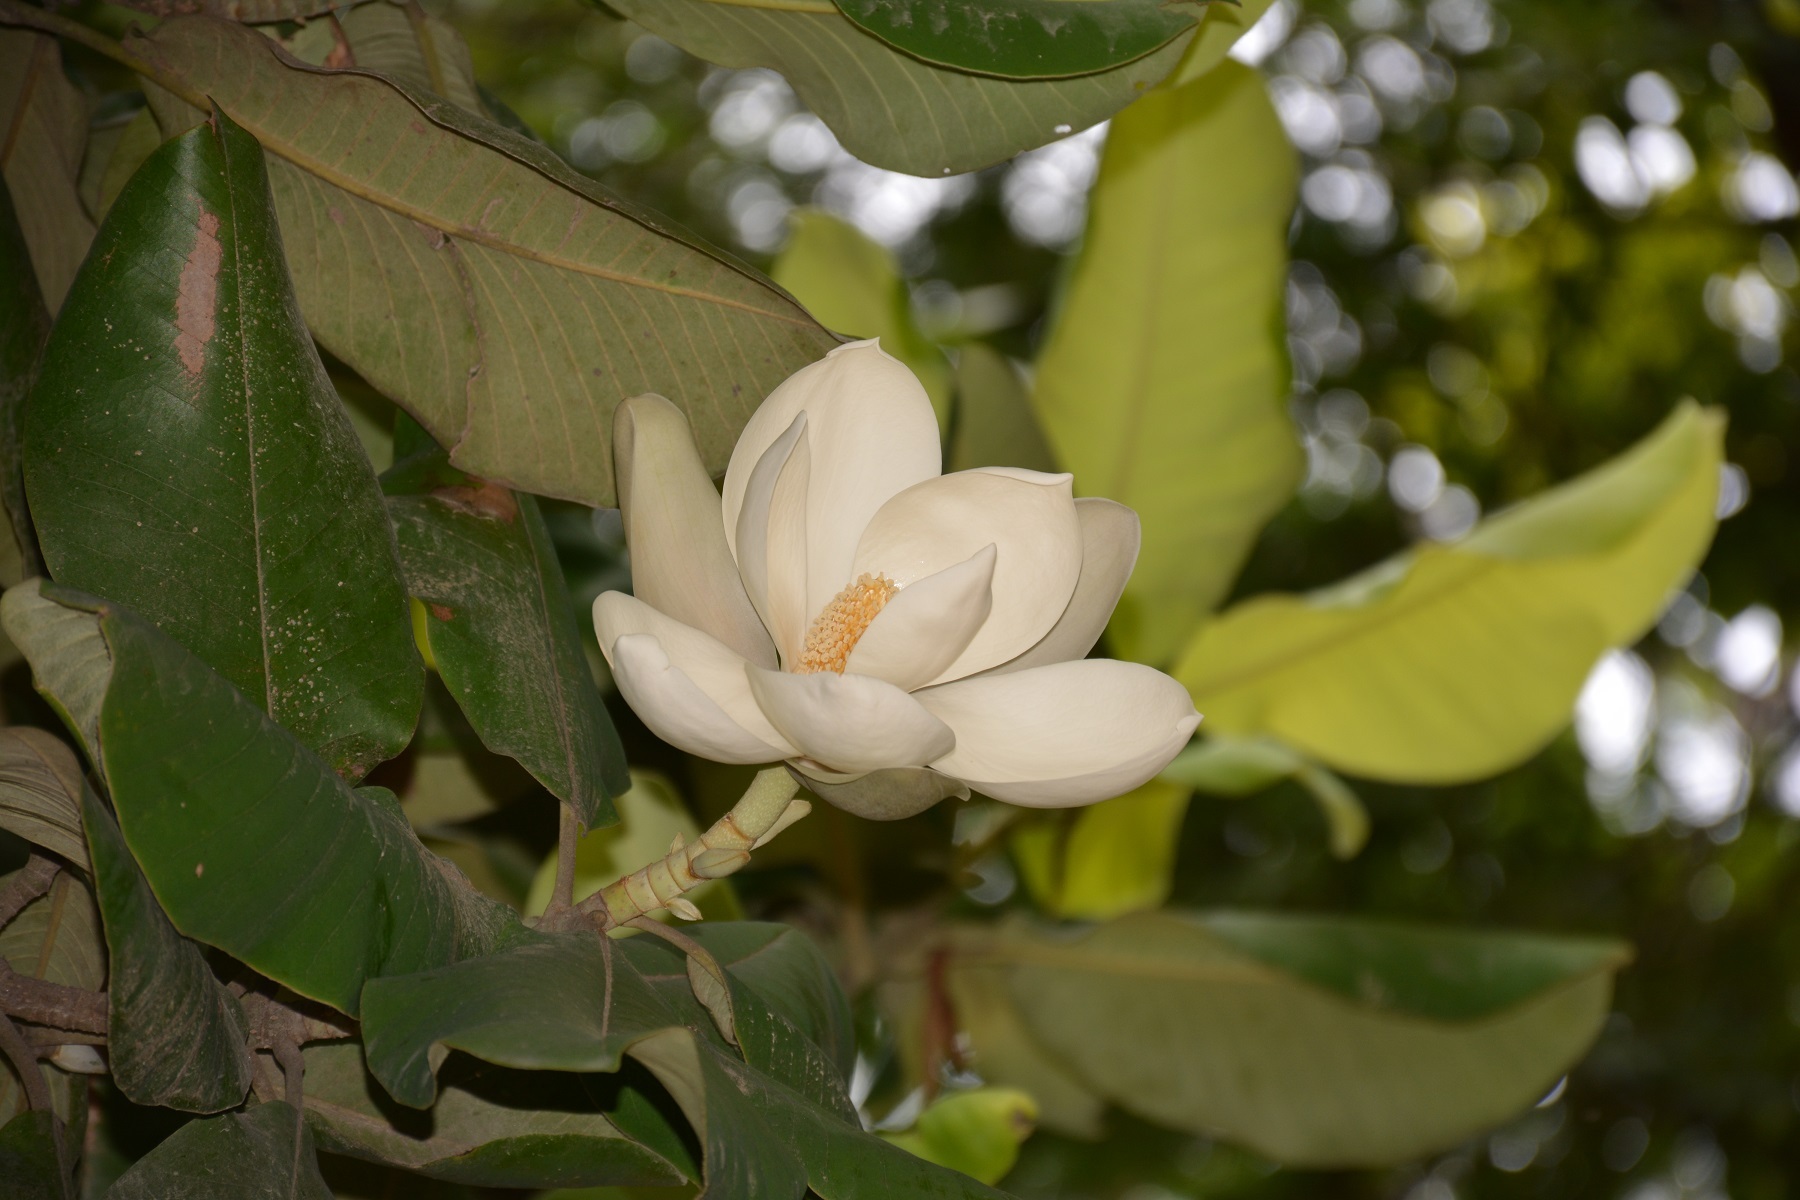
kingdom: Plantae
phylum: Tracheophyta
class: Magnoliopsida
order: Magnoliales
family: Magnoliaceae
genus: Magnolia
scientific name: Magnolia sharpii
